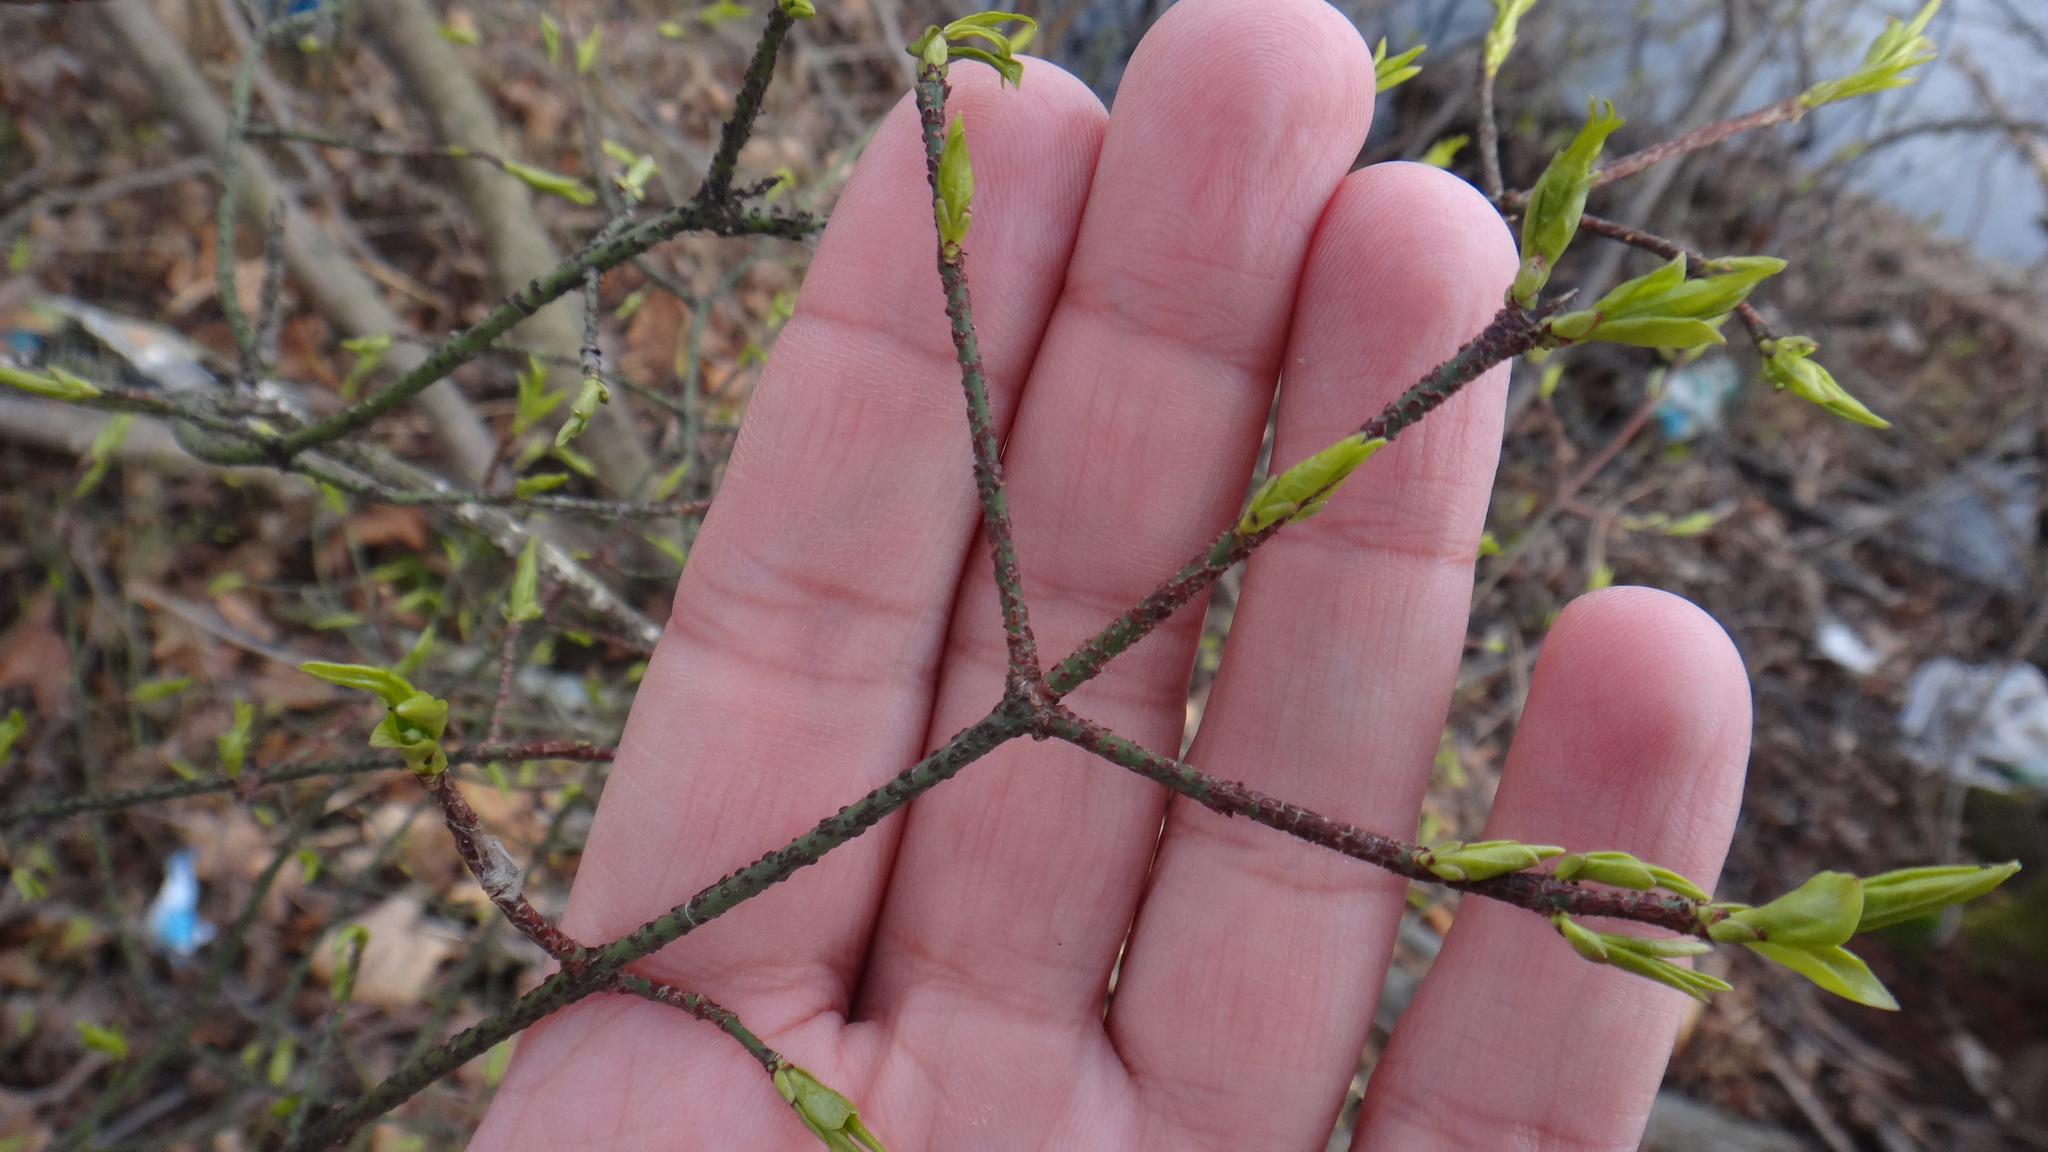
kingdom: Plantae
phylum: Tracheophyta
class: Magnoliopsida
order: Celastrales
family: Celastraceae
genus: Euonymus
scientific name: Euonymus verrucosus
